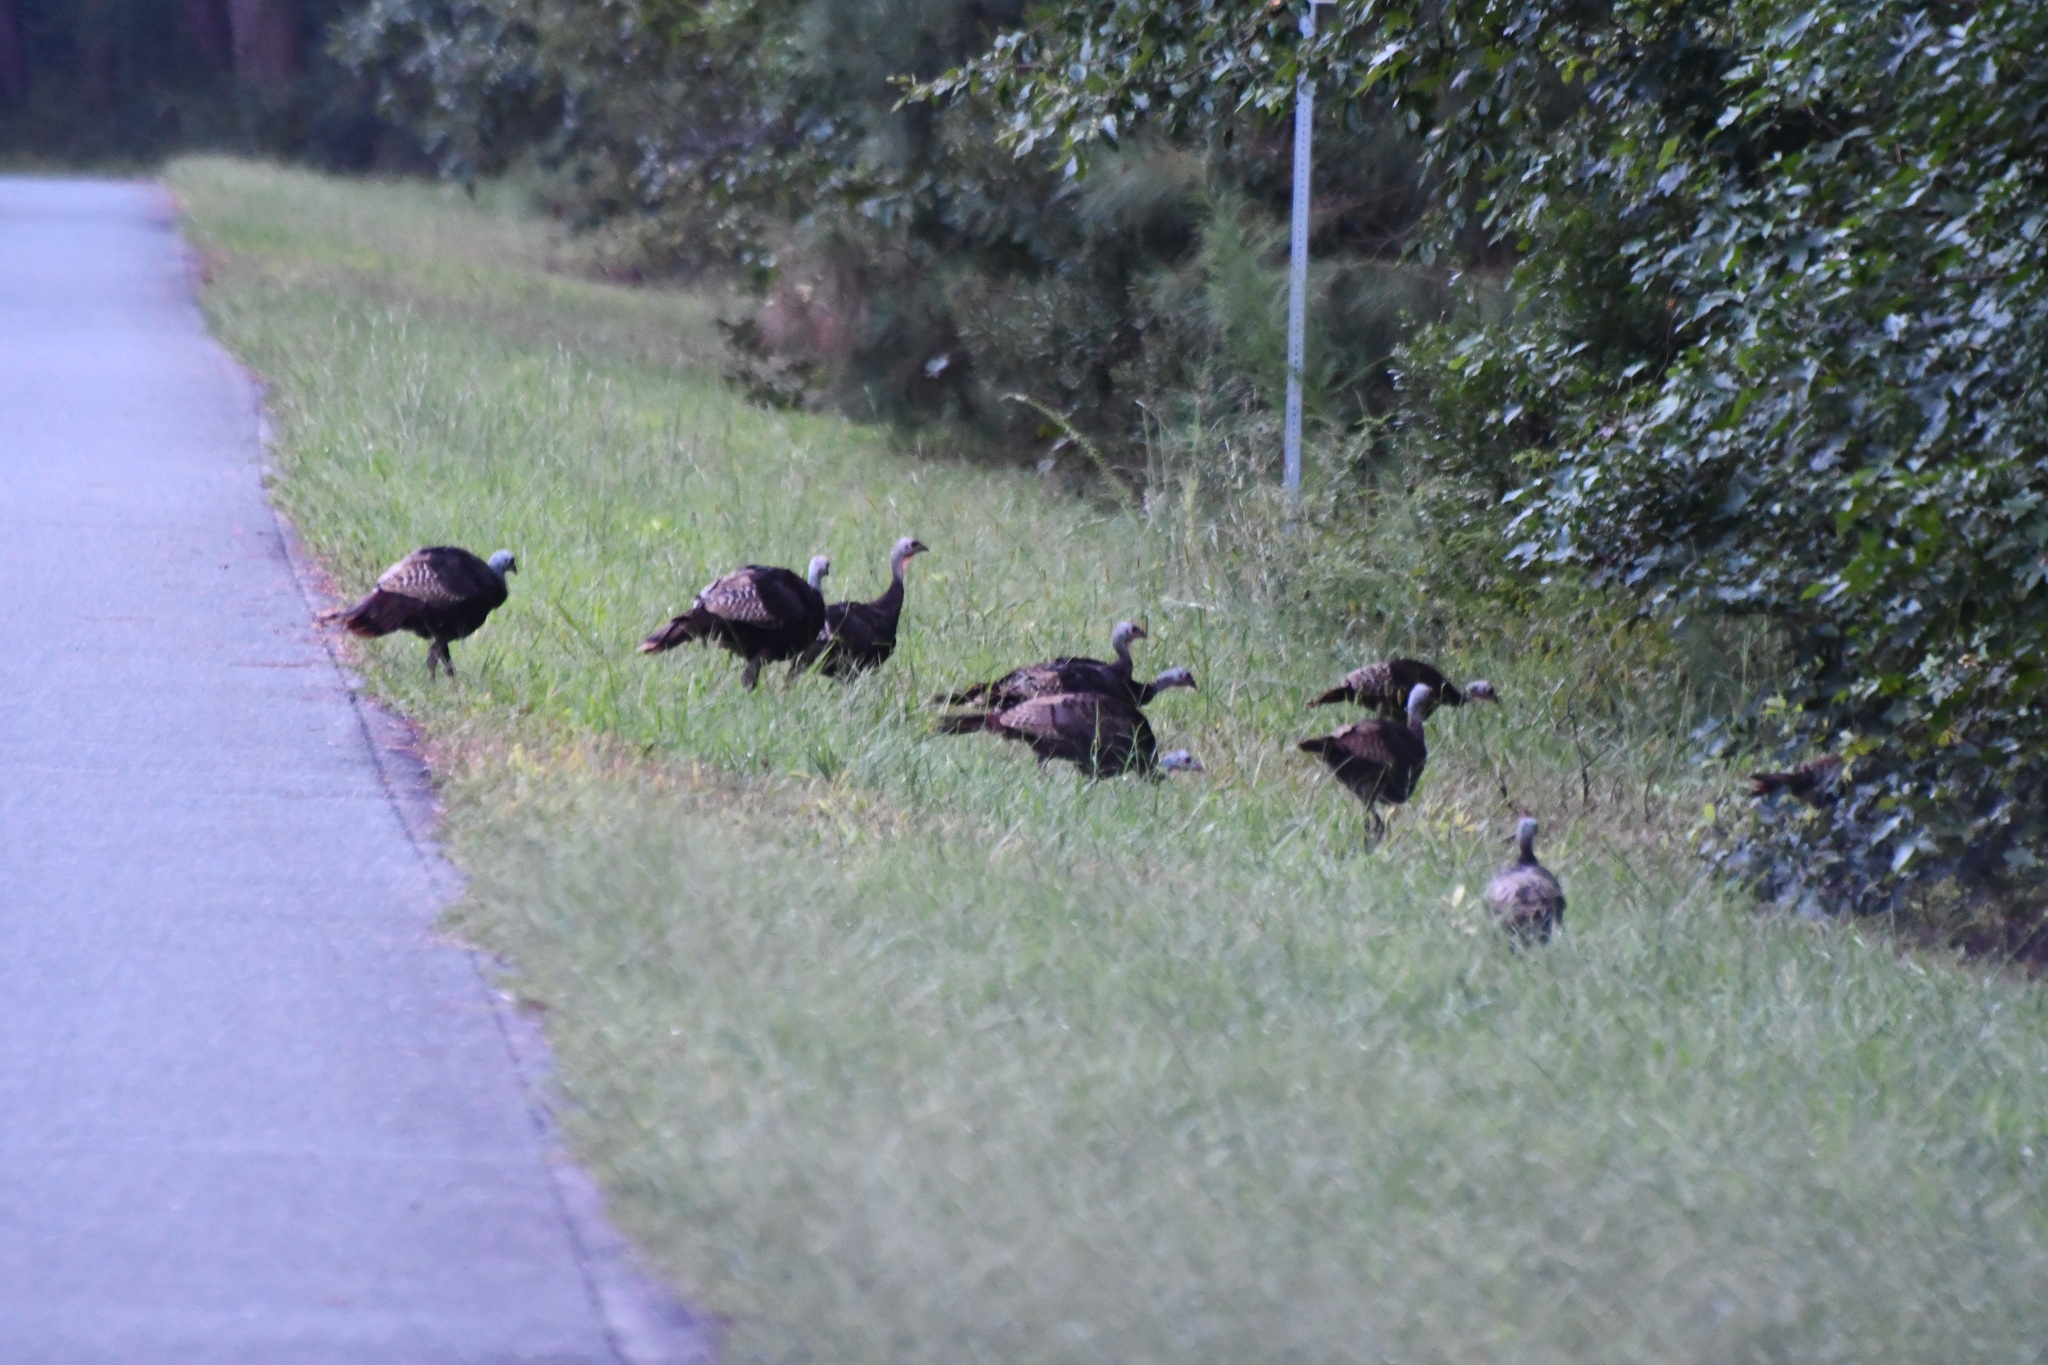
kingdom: Animalia
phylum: Chordata
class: Aves
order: Galliformes
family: Phasianidae
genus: Meleagris
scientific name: Meleagris gallopavo
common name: Wild turkey
